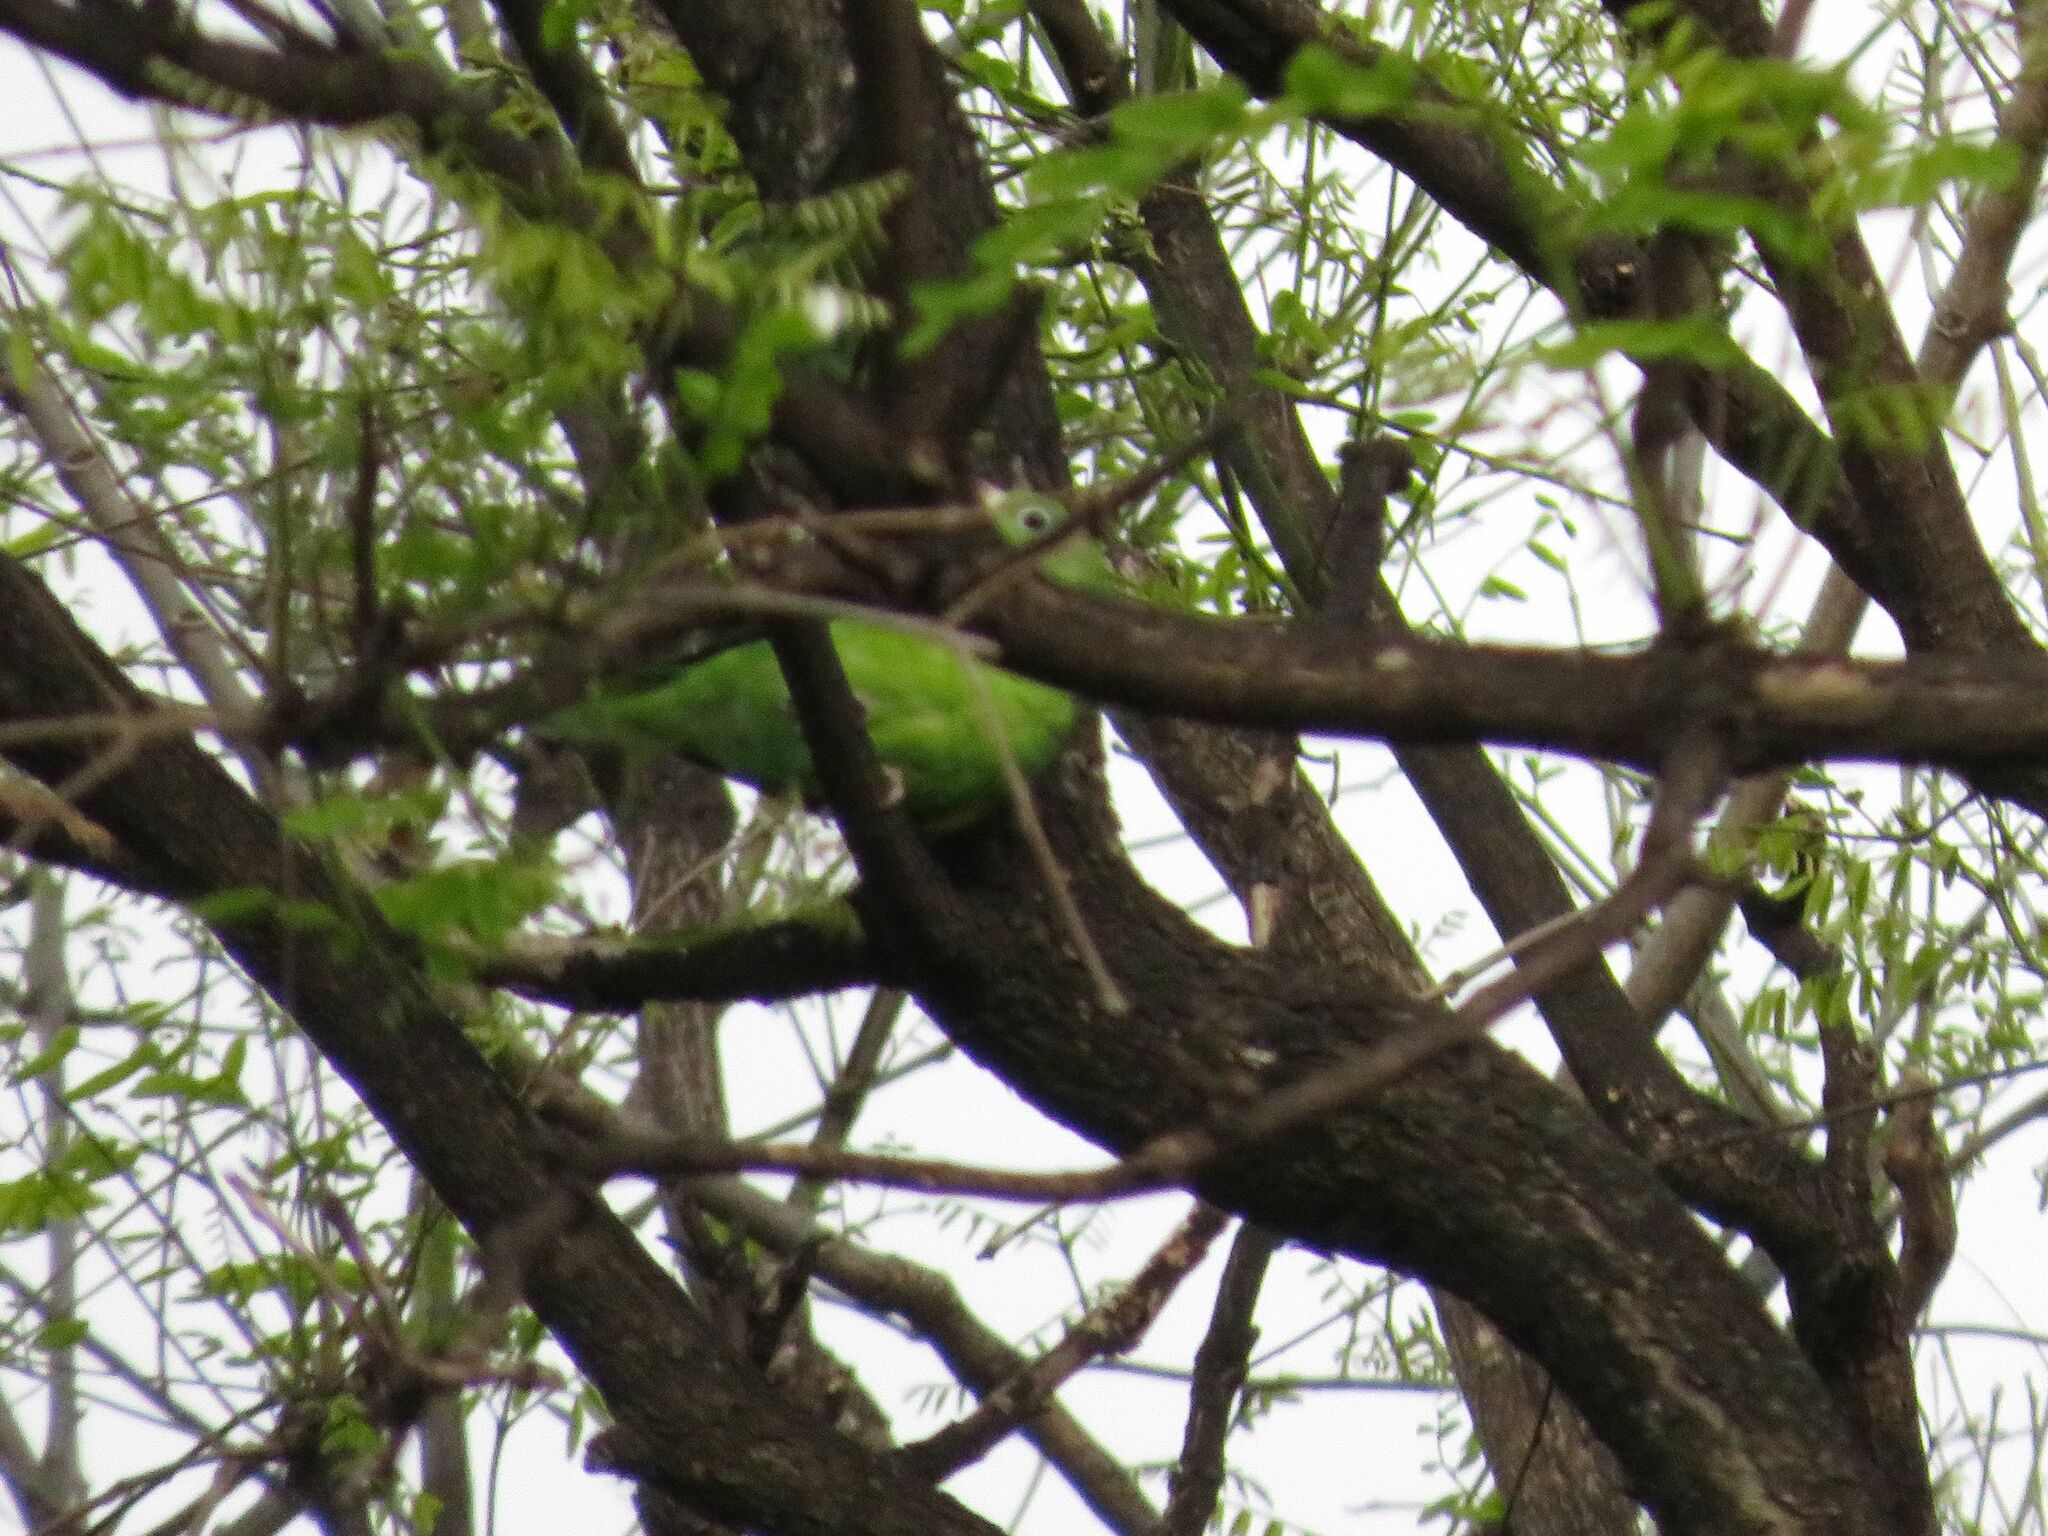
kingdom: Animalia
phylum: Chordata
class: Aves
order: Psittaciformes
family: Psittacidae
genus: Brotogeris
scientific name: Brotogeris chiriri
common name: Yellow-chevroned parakeet
